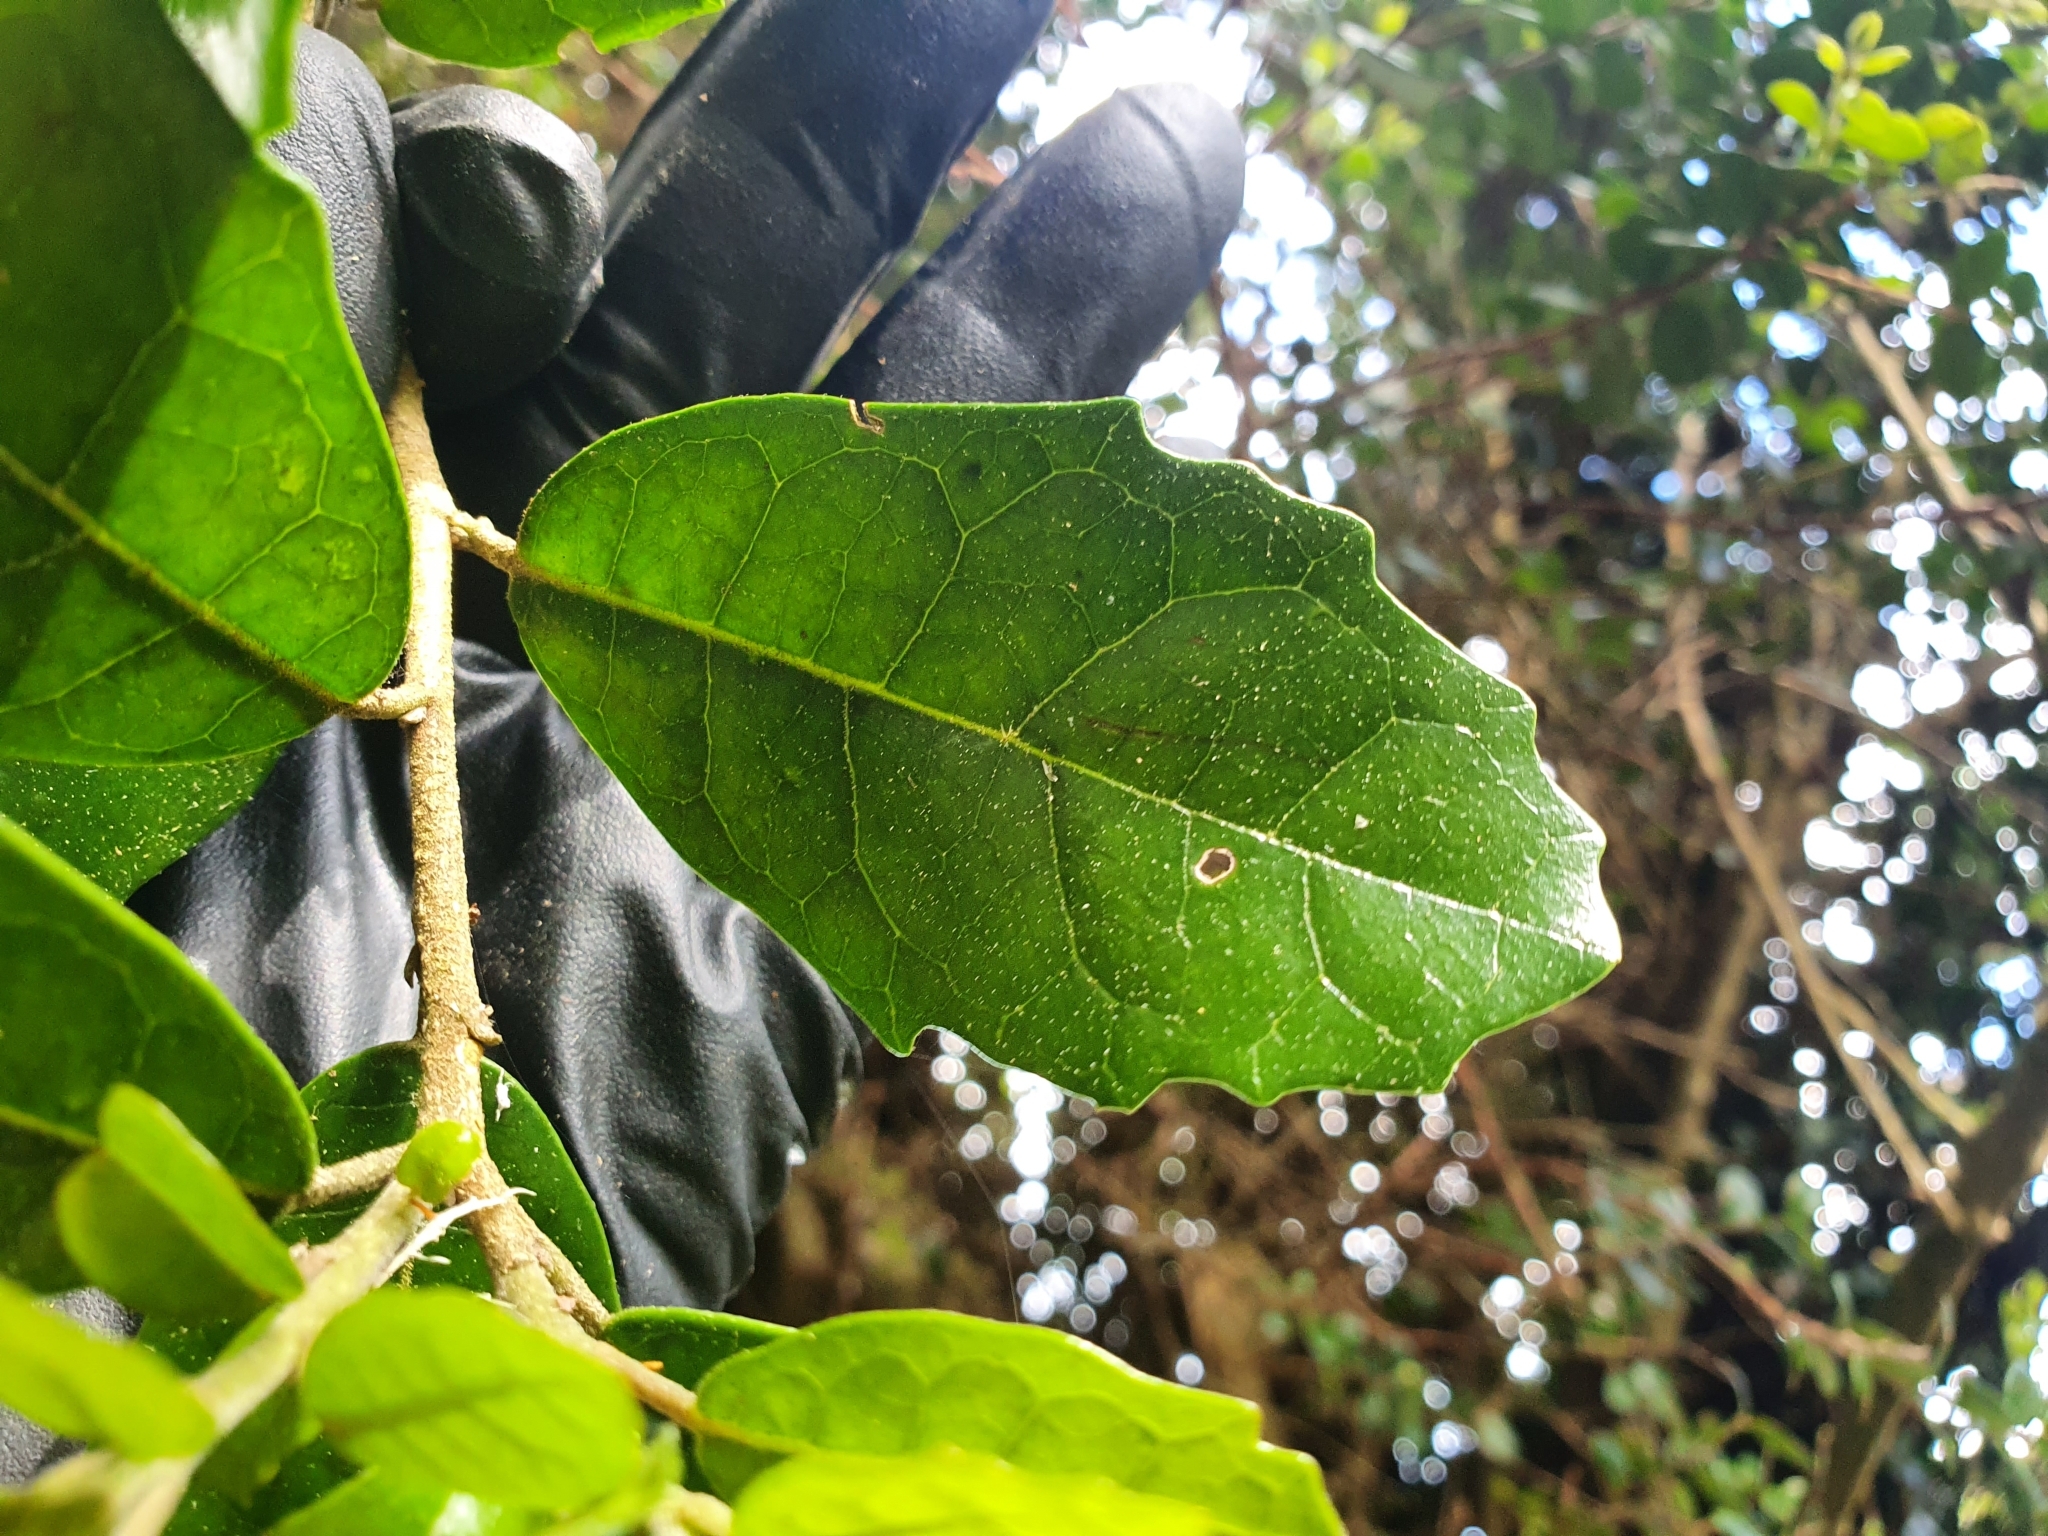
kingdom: Plantae
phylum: Tracheophyta
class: Magnoliopsida
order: Apiales
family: Pennantiaceae
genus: Pennantia
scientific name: Pennantia corymbosa
